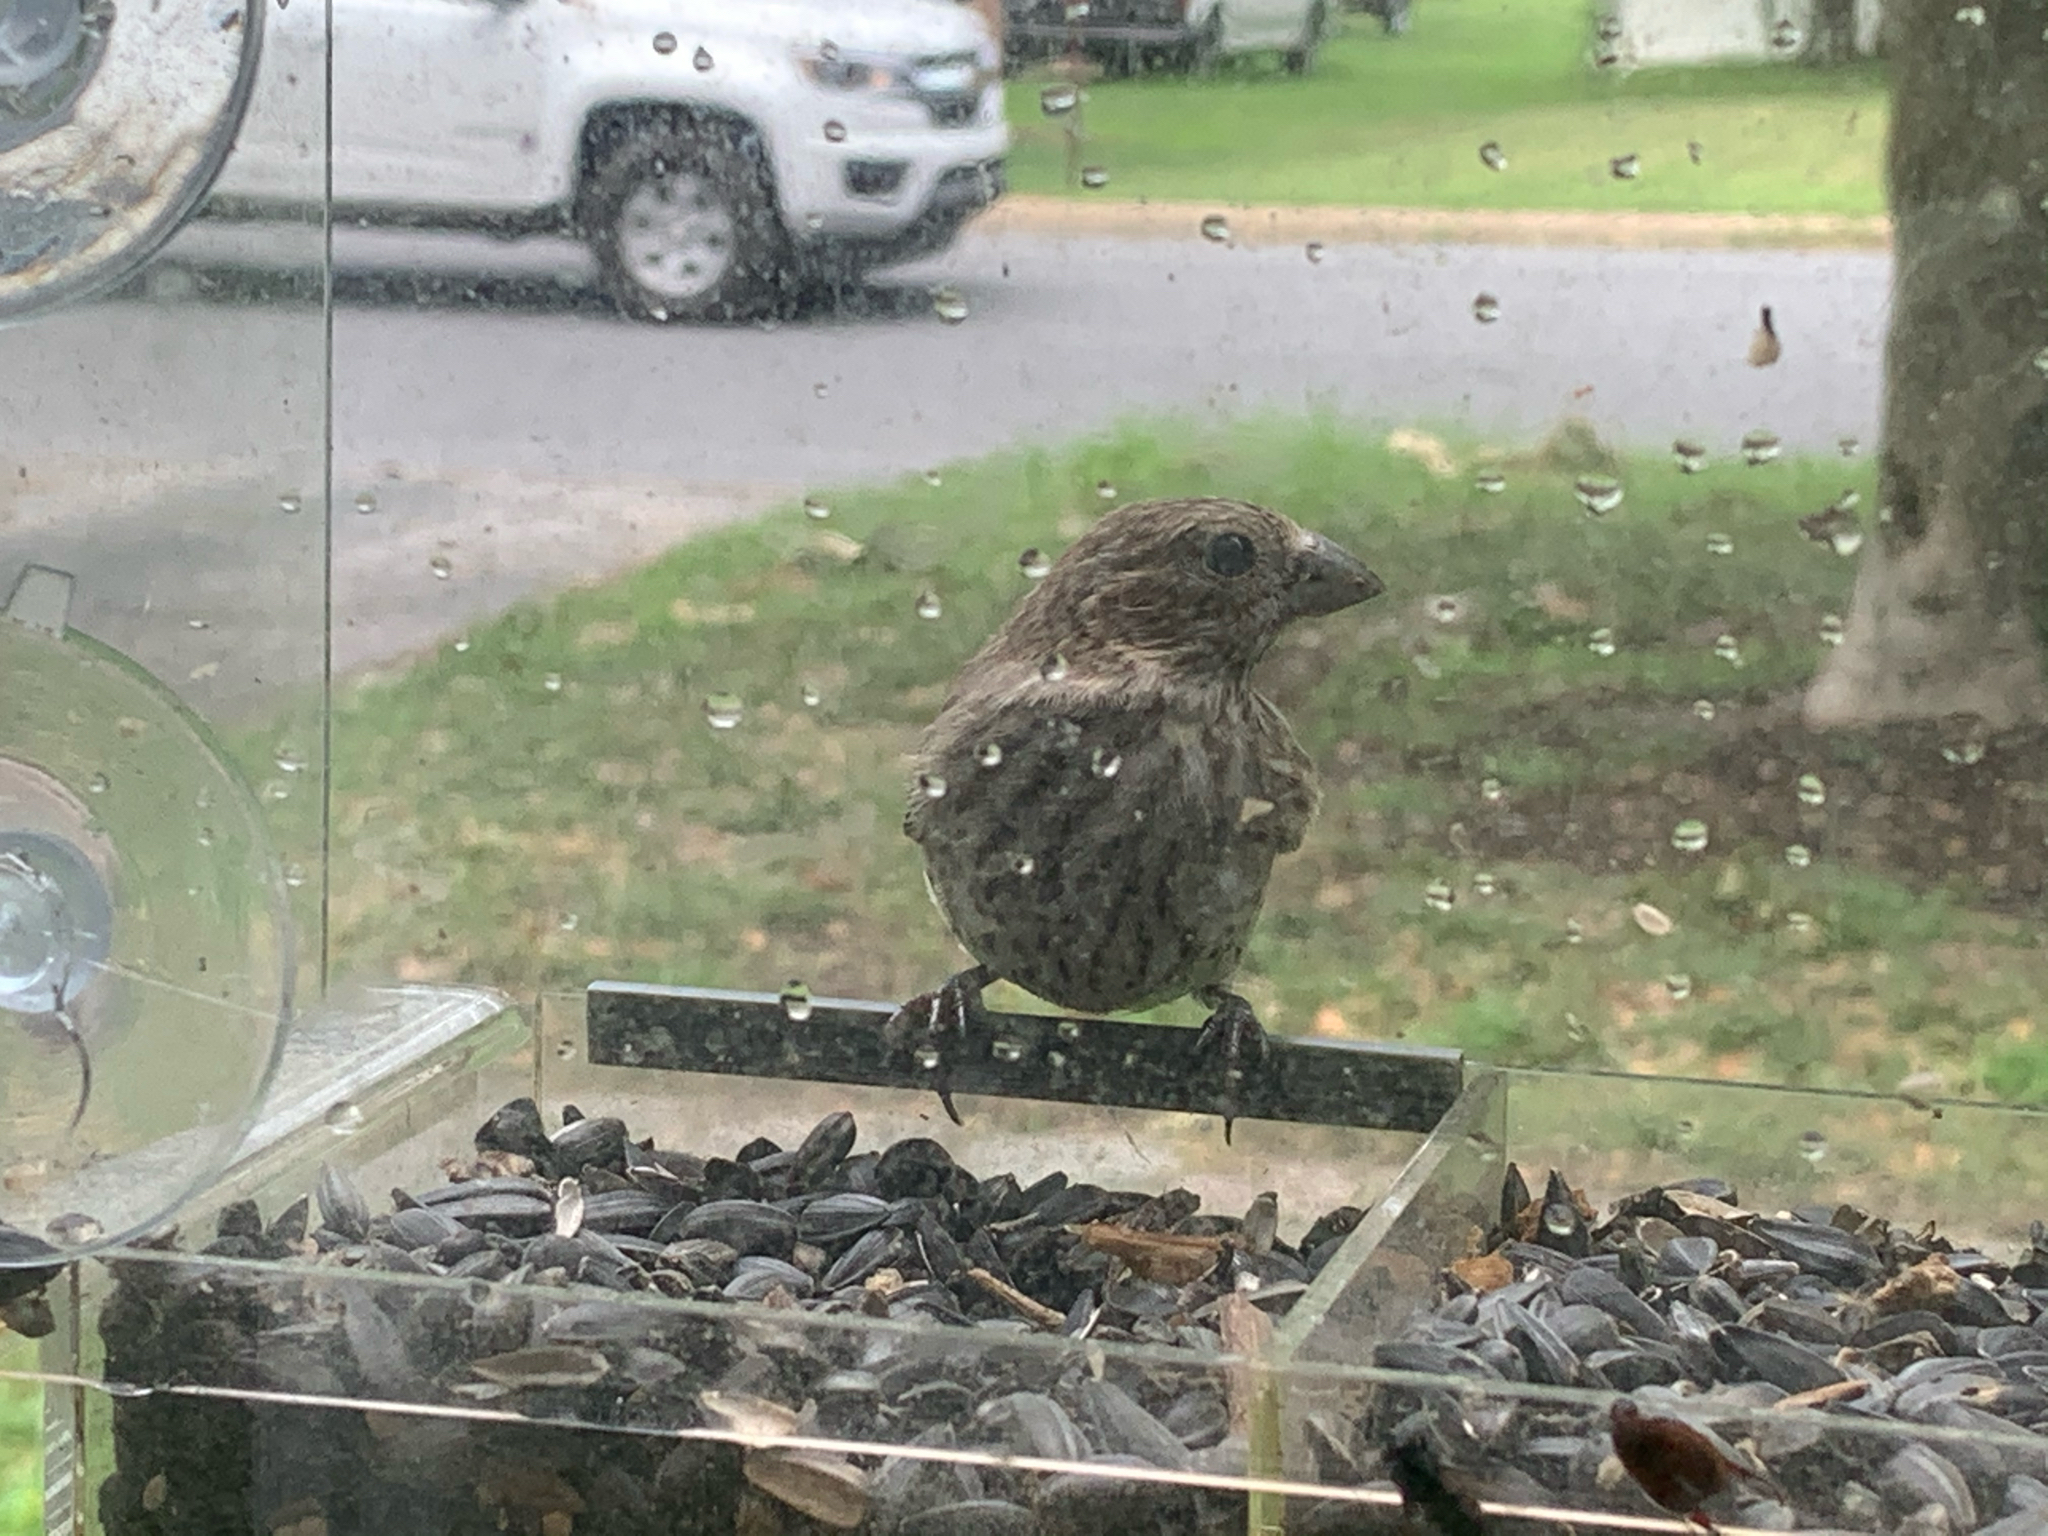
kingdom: Animalia
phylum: Chordata
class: Aves
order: Passeriformes
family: Fringillidae
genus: Haemorhous
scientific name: Haemorhous mexicanus
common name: House finch
